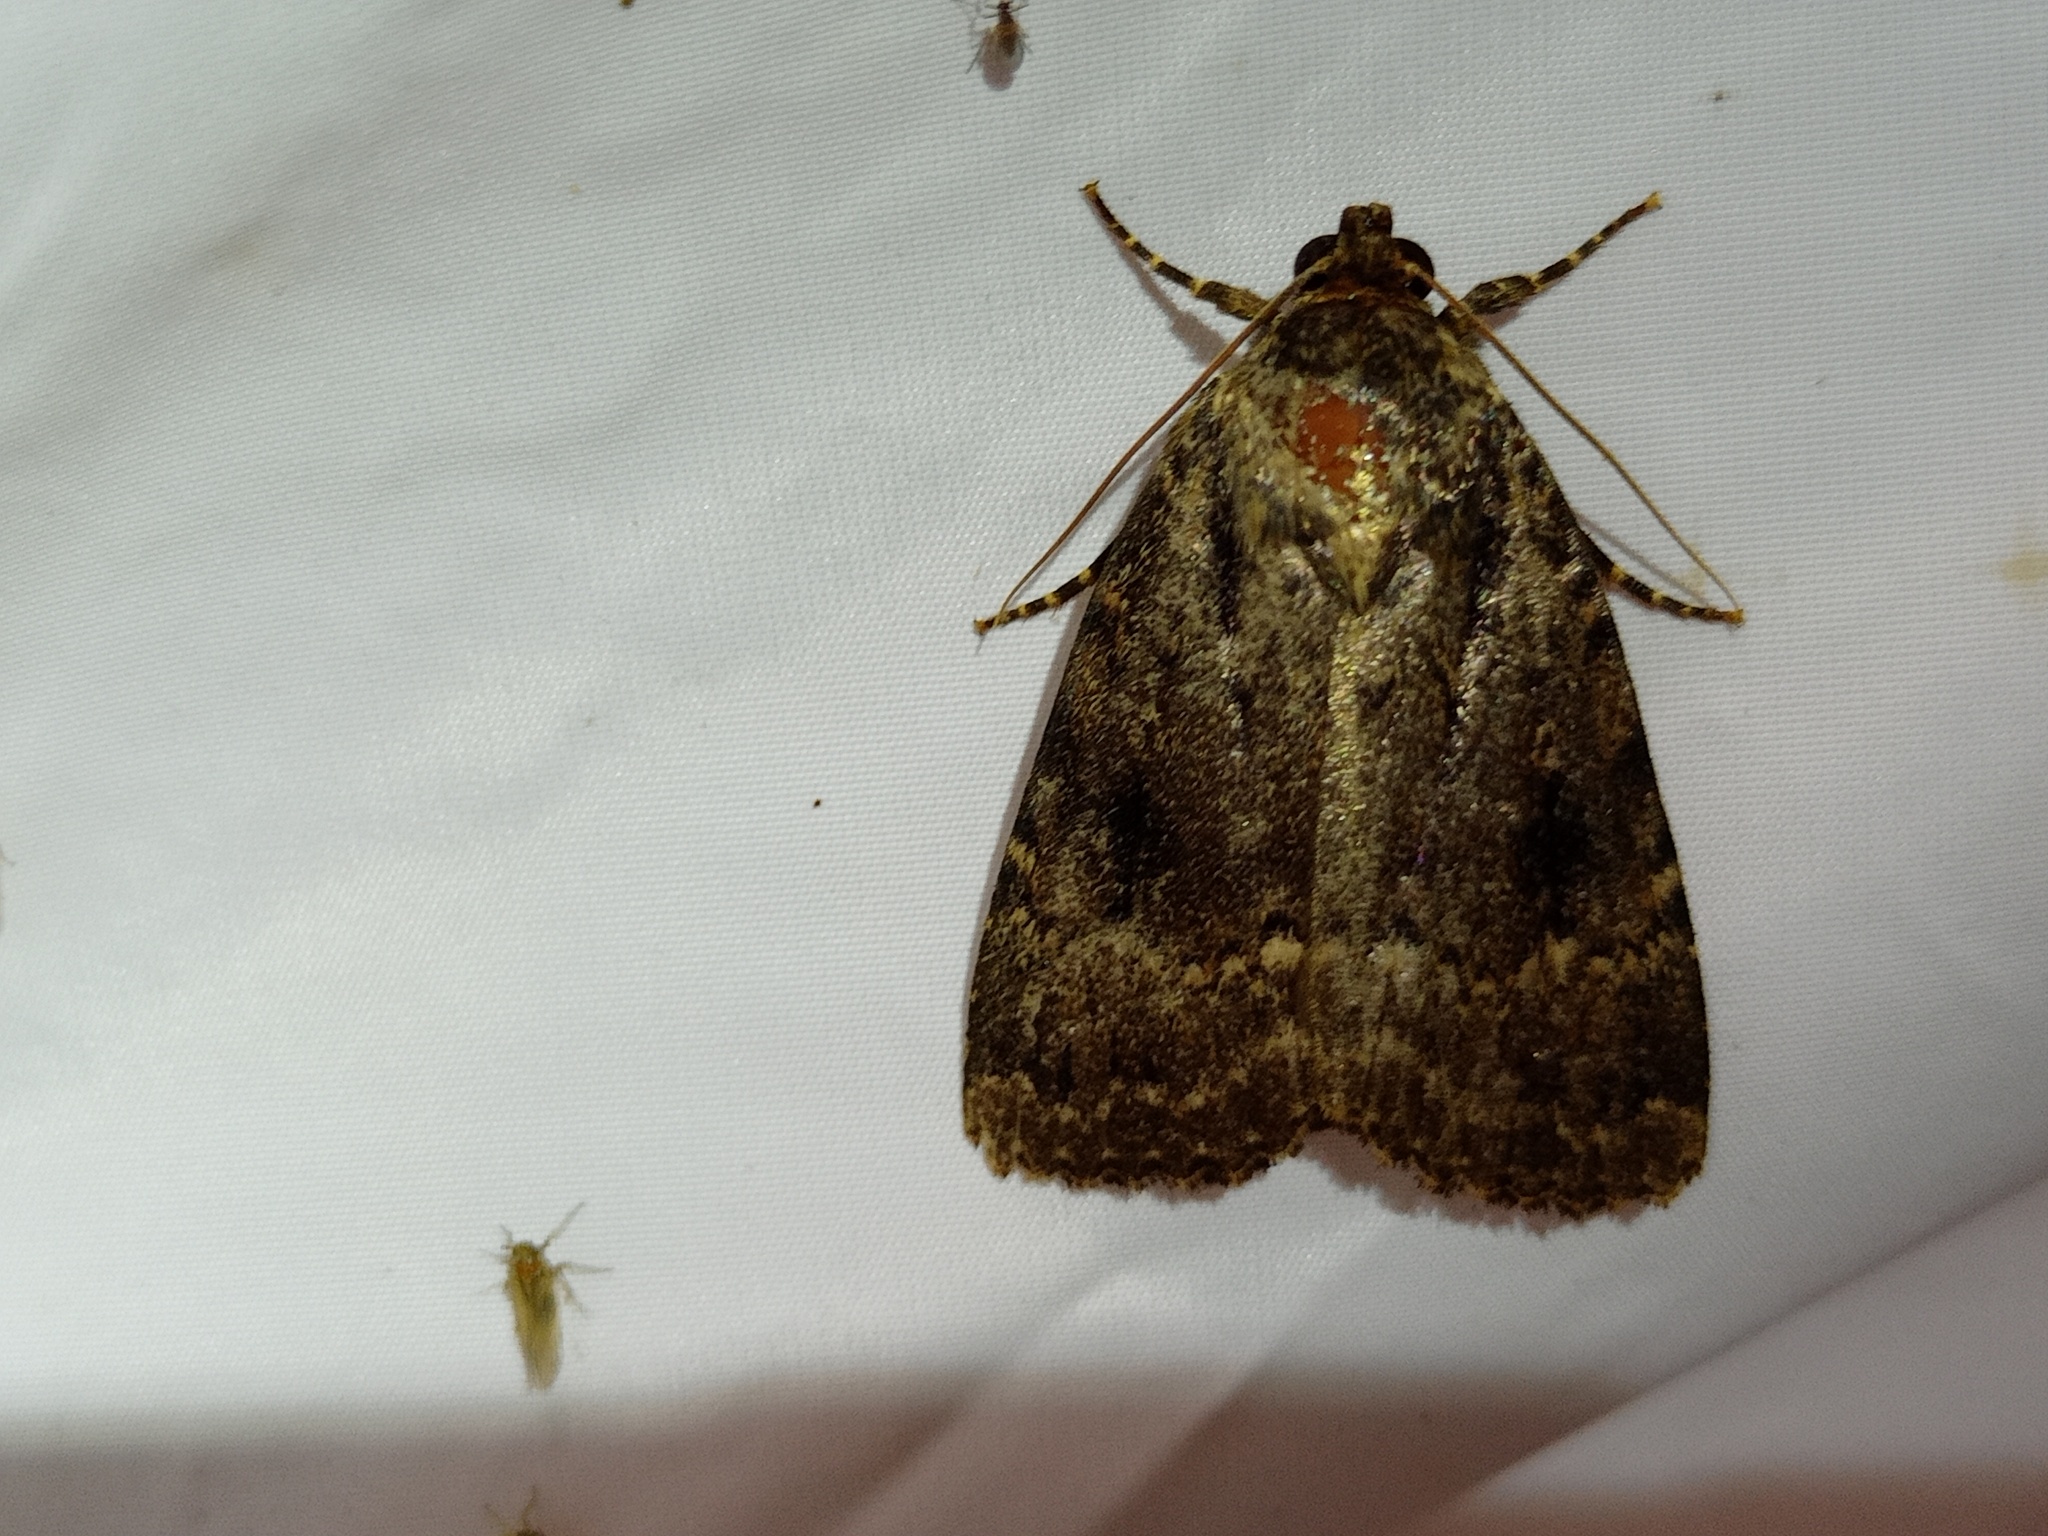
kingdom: Animalia
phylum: Arthropoda
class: Insecta
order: Lepidoptera
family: Noctuidae
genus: Amphipyra
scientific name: Amphipyra pyramidea
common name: Copper underwing
